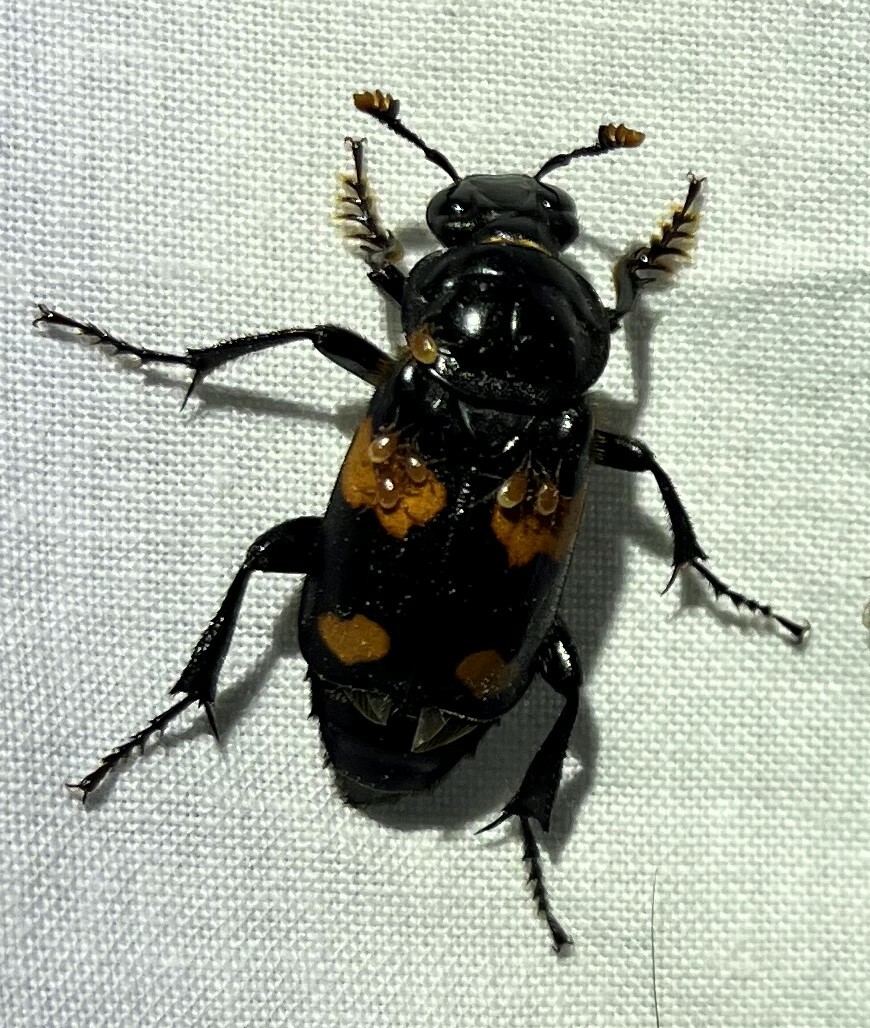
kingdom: Animalia
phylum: Arthropoda
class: Insecta
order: Coleoptera
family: Staphylinidae
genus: Nicrophorus
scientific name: Nicrophorus orbicollis
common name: Roundneck sexton beetle
